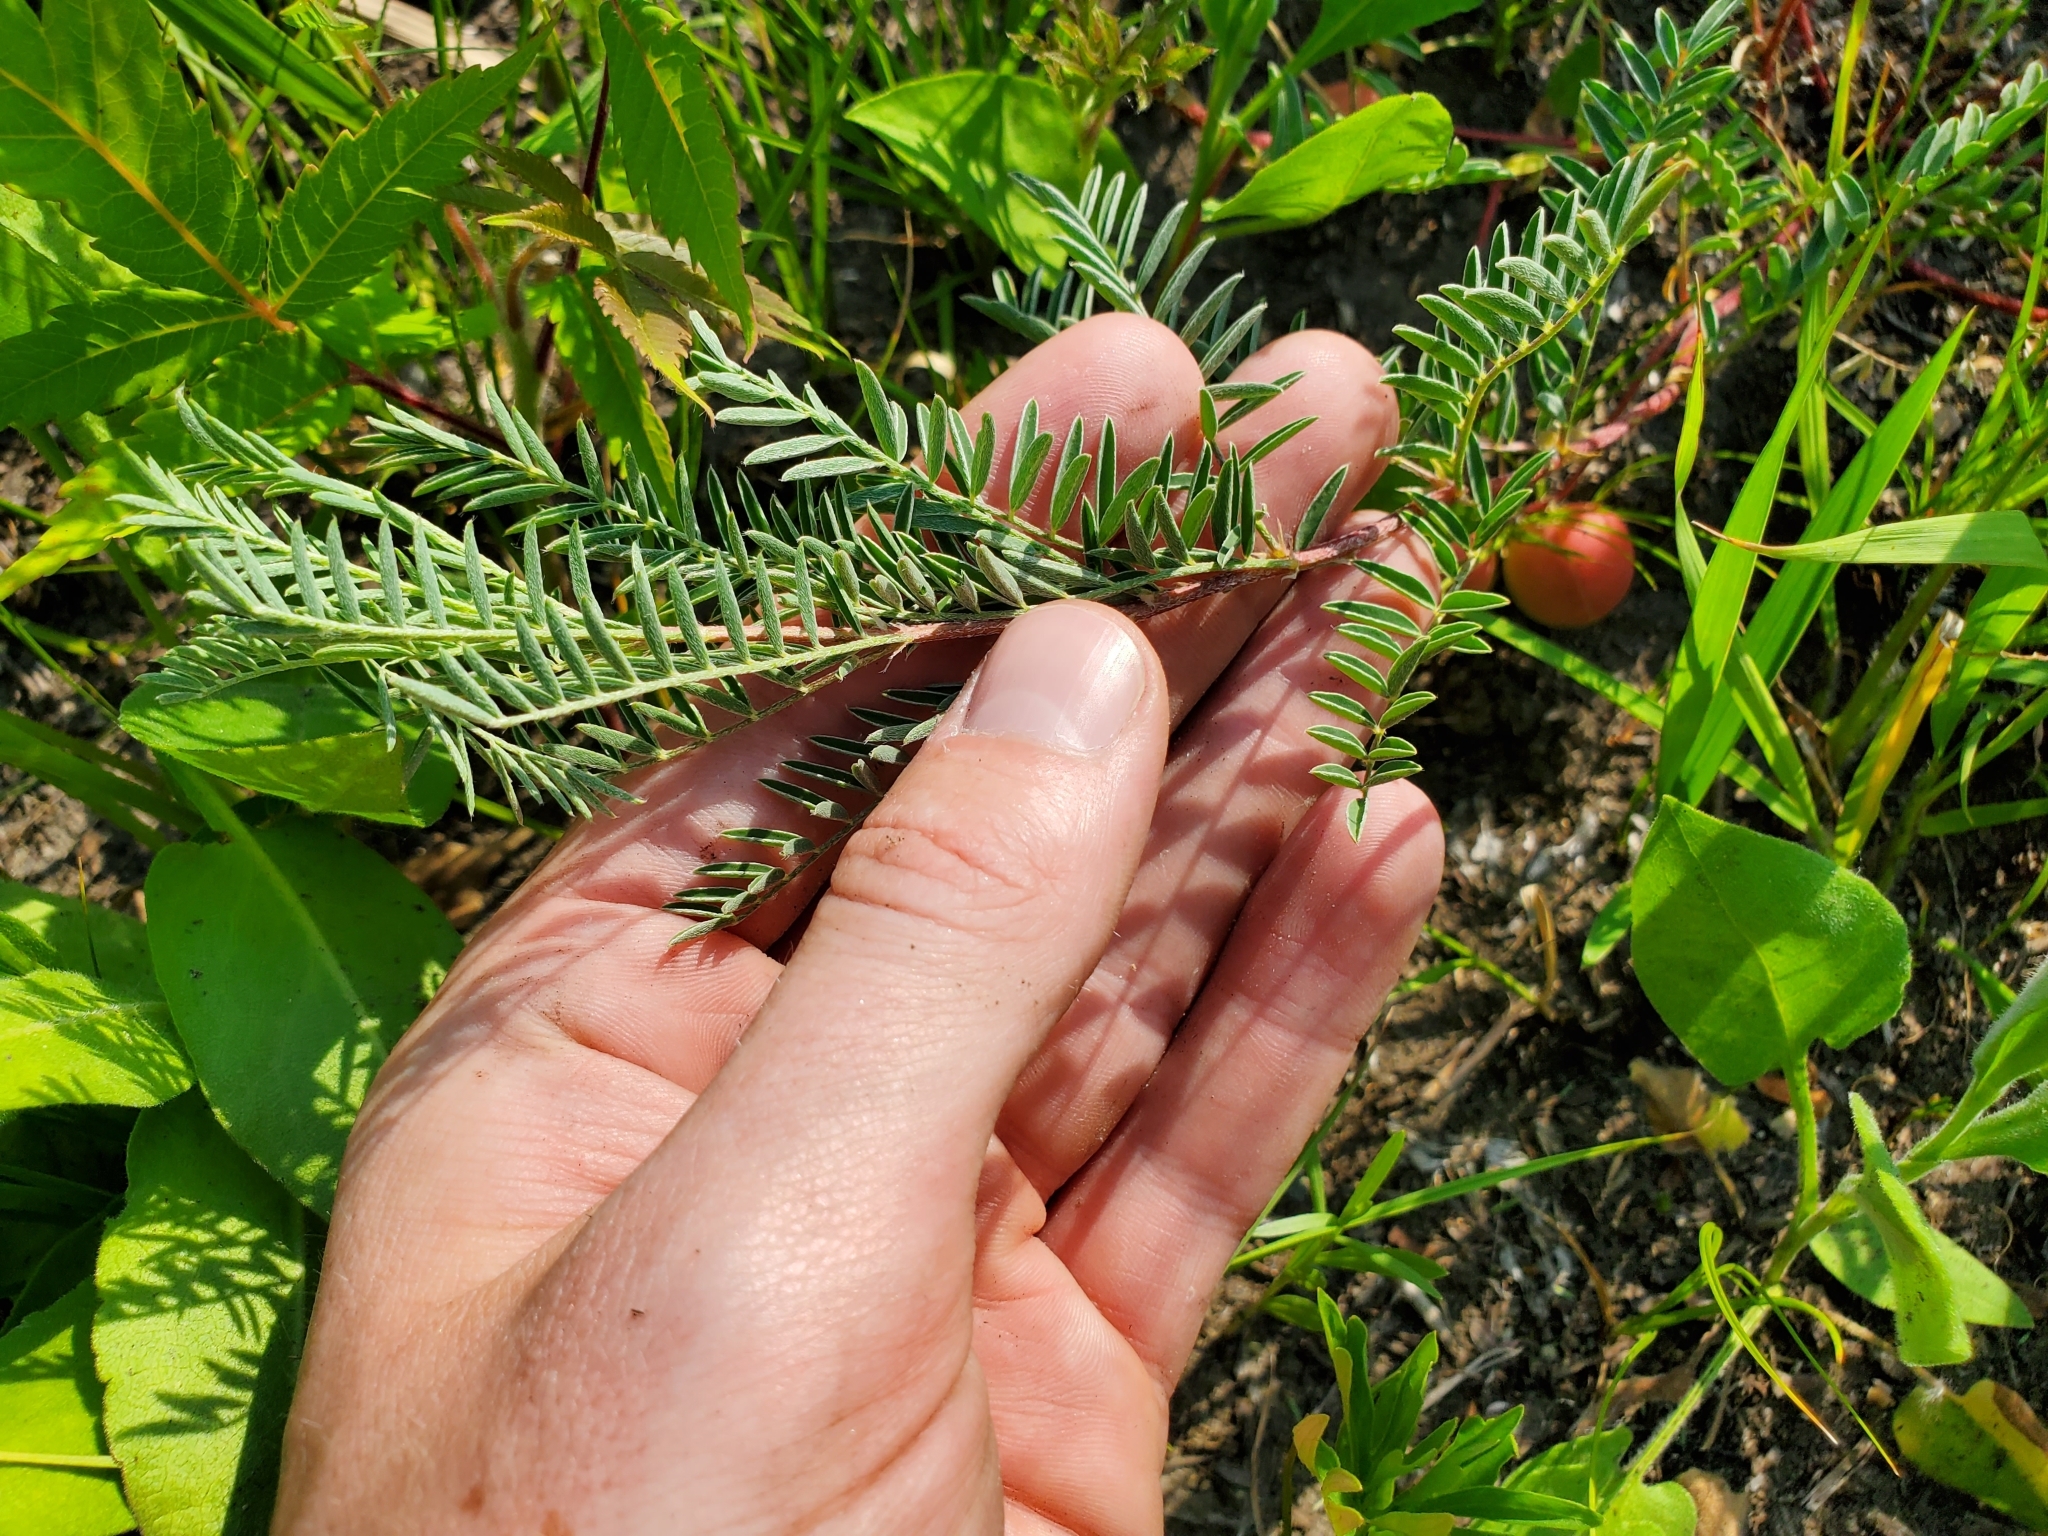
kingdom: Plantae
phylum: Tracheophyta
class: Magnoliopsida
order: Fabales
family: Fabaceae
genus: Astragalus
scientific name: Astragalus crassicarpus
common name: Ground-plum milk-vetch
